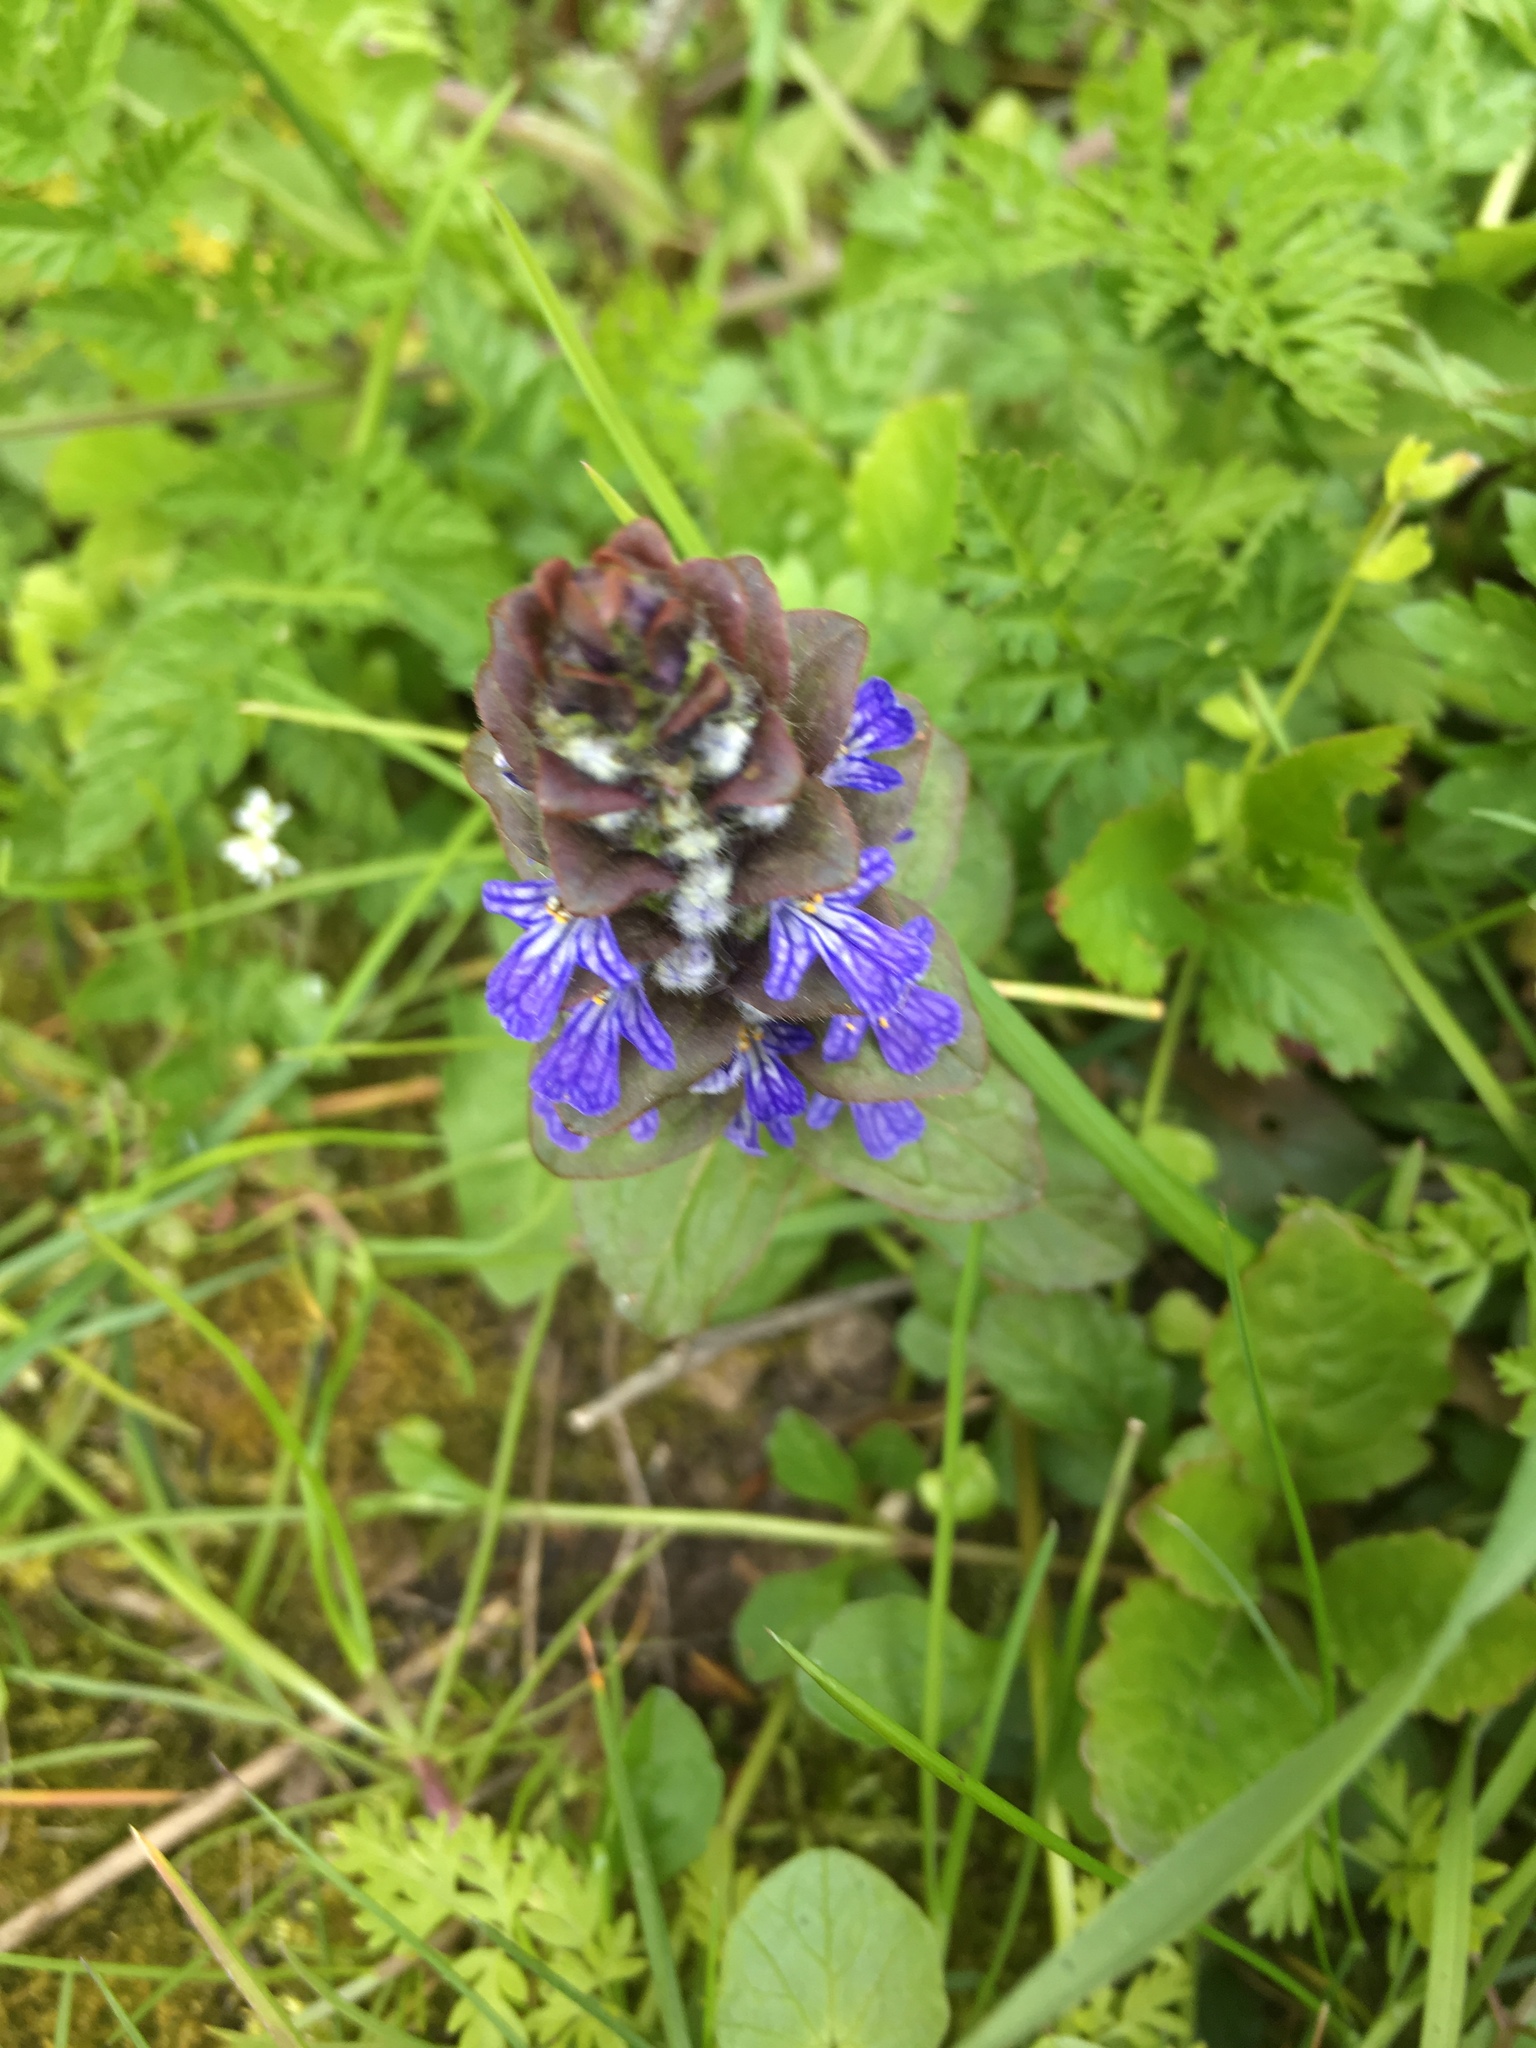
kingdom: Plantae
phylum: Tracheophyta
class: Magnoliopsida
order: Lamiales
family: Lamiaceae
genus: Ajuga
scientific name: Ajuga reptans
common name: Bugle
